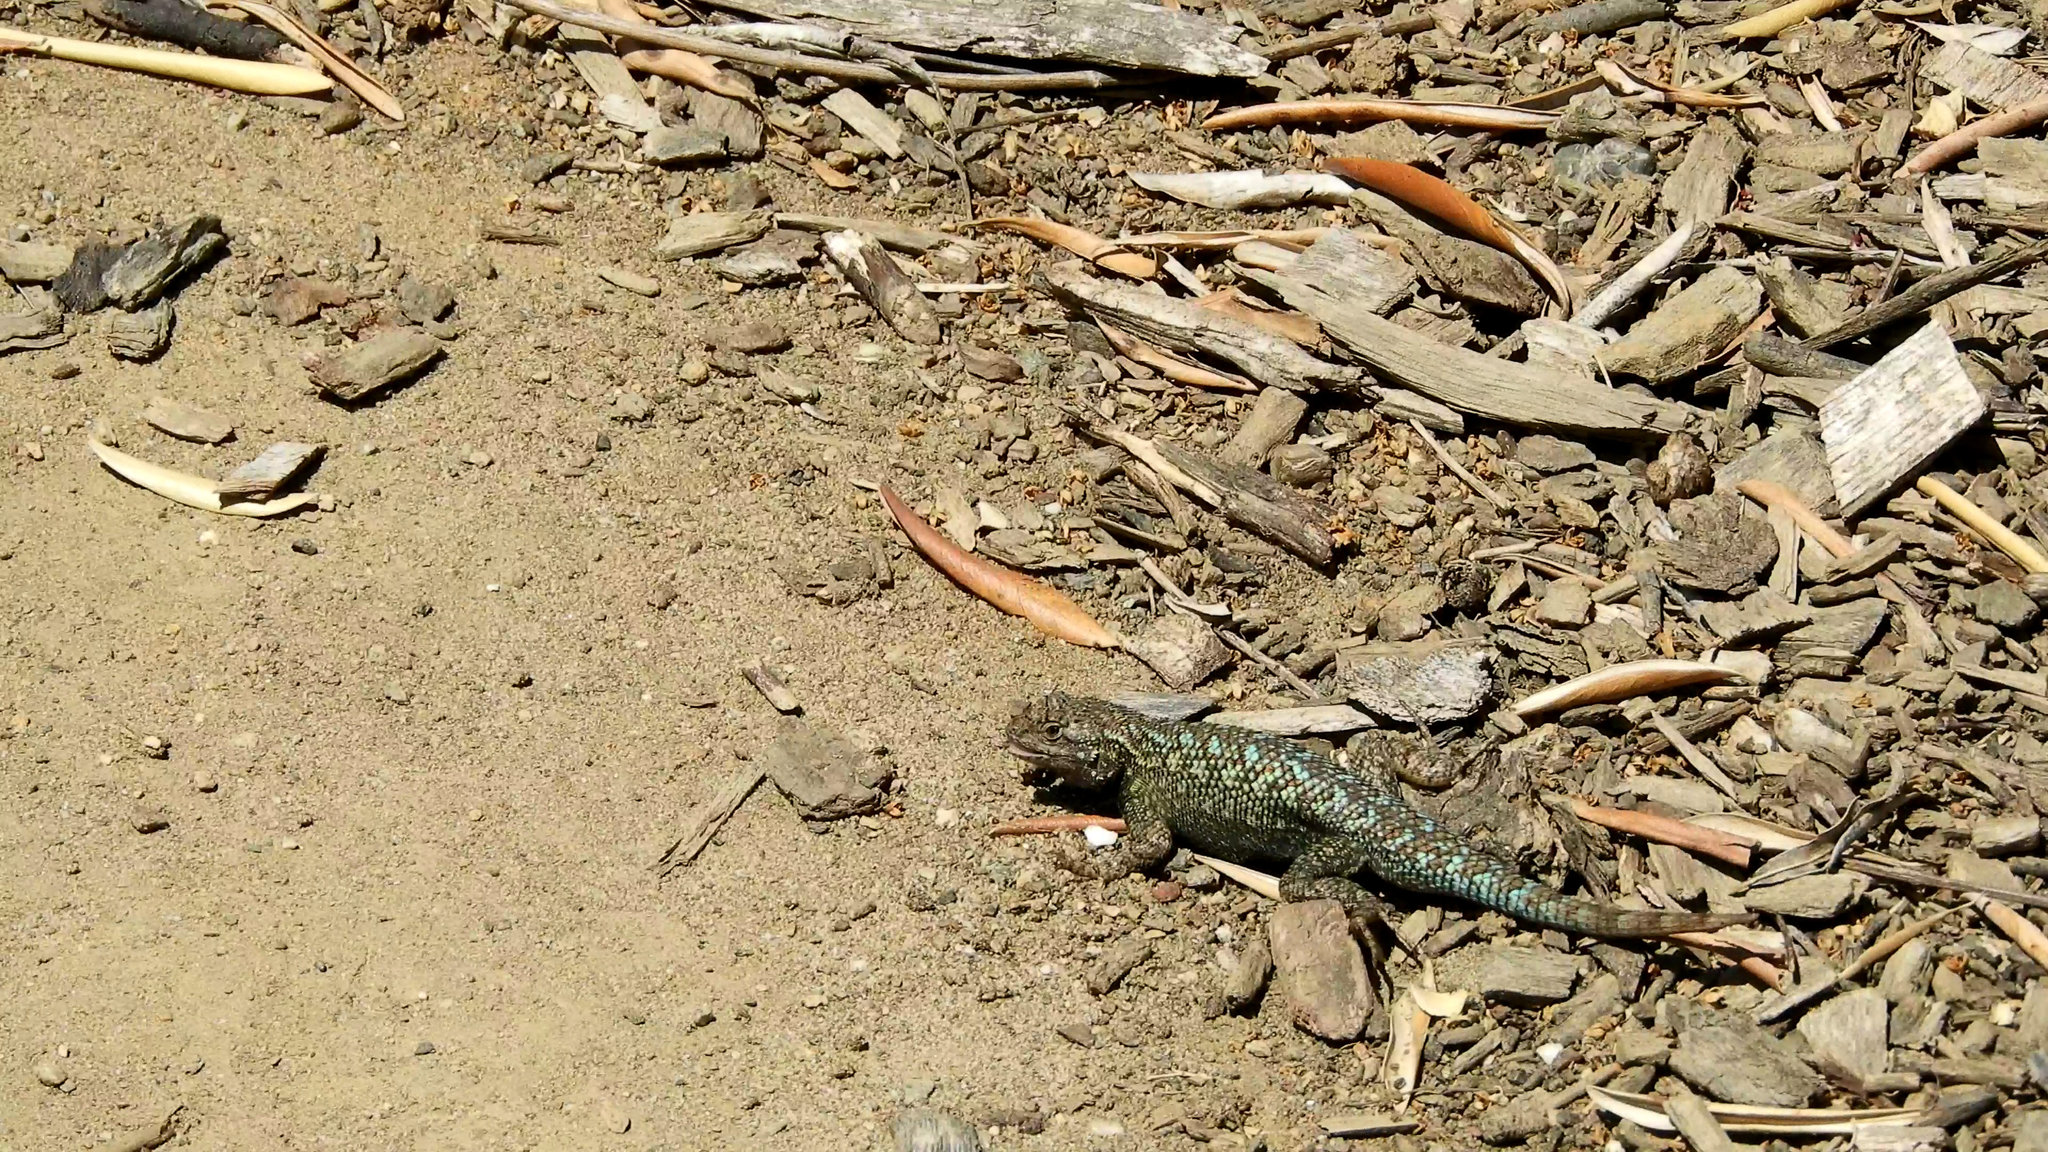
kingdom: Animalia
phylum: Chordata
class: Squamata
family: Phrynosomatidae
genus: Sceloporus
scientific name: Sceloporus occidentalis
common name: Western fence lizard
